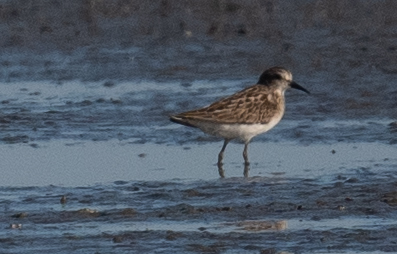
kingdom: Animalia
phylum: Chordata
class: Aves
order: Charadriiformes
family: Scolopacidae
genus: Calidris
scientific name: Calidris minutilla
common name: Least sandpiper
